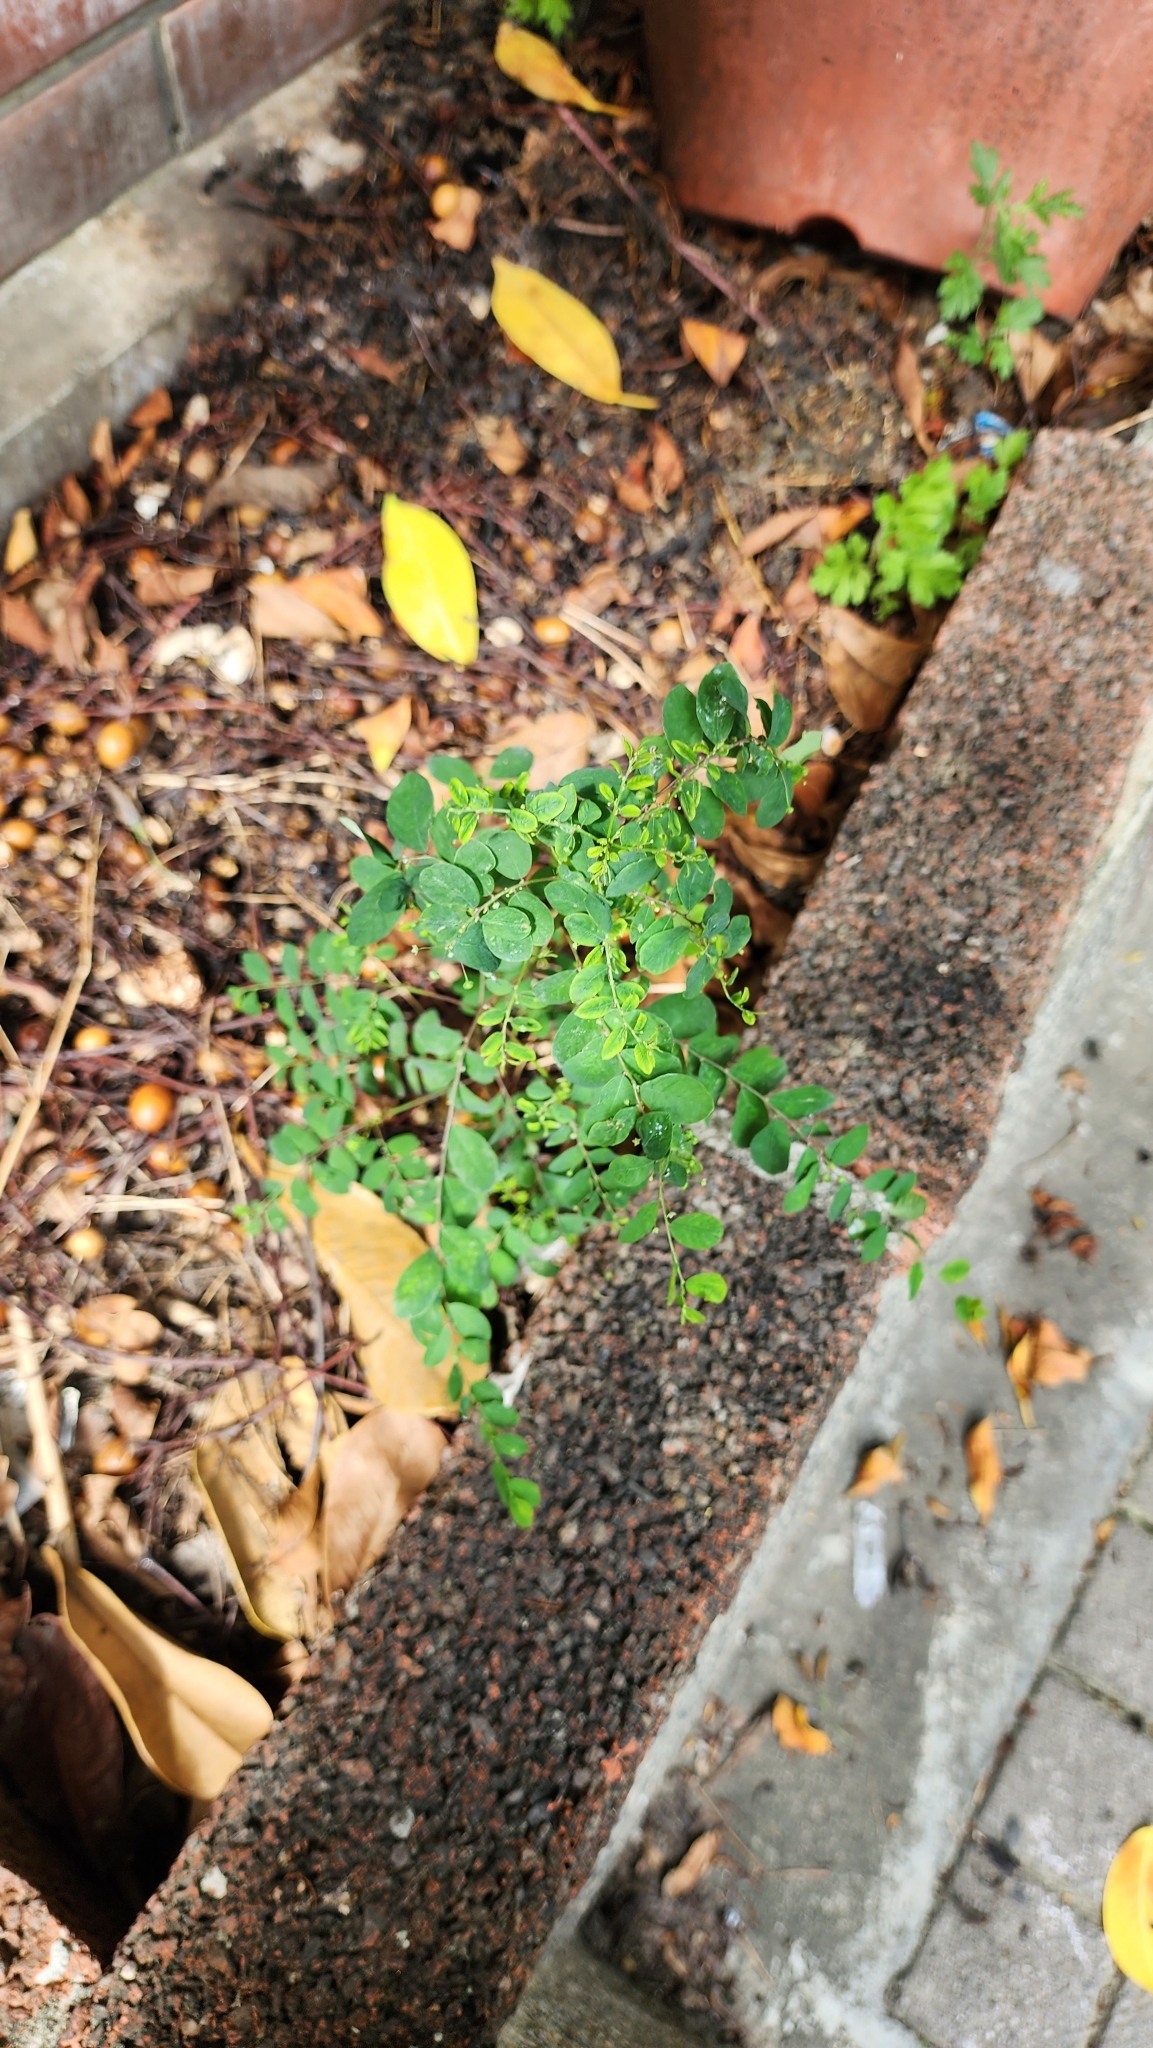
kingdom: Plantae
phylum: Tracheophyta
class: Magnoliopsida
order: Malpighiales
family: Phyllanthaceae
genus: Phyllanthus
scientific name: Phyllanthus tenellus
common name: Mascarene island leaf-flower
